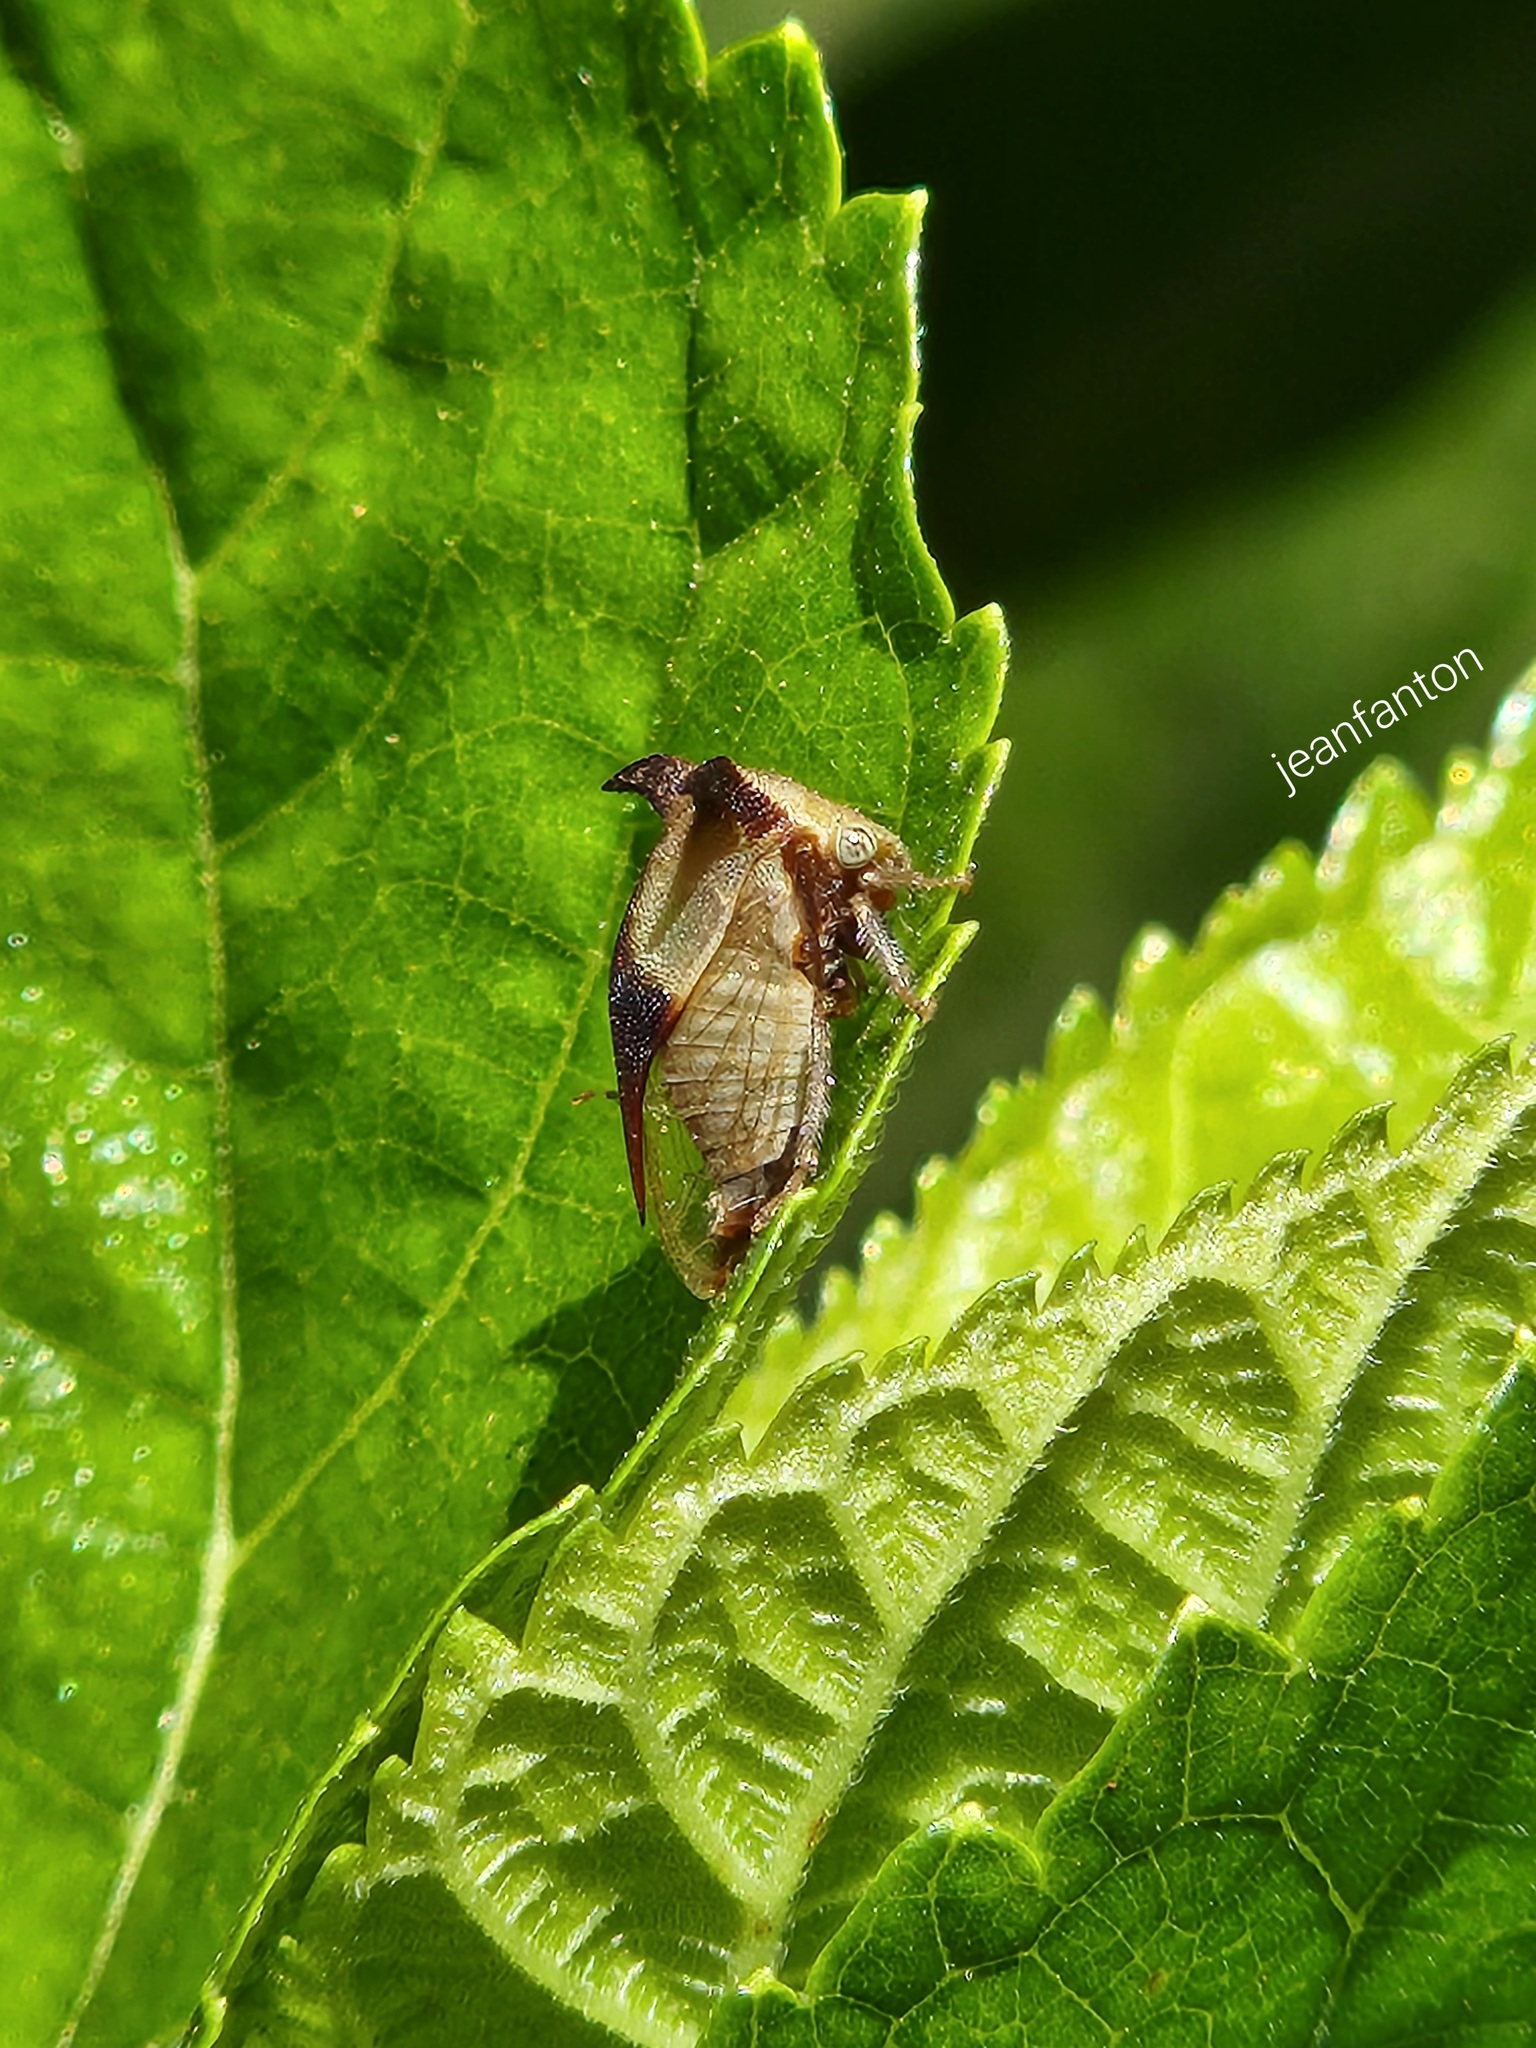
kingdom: Animalia
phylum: Arthropoda
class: Insecta
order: Hemiptera
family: Membracidae
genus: Ceresa
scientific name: Ceresa ustulata
